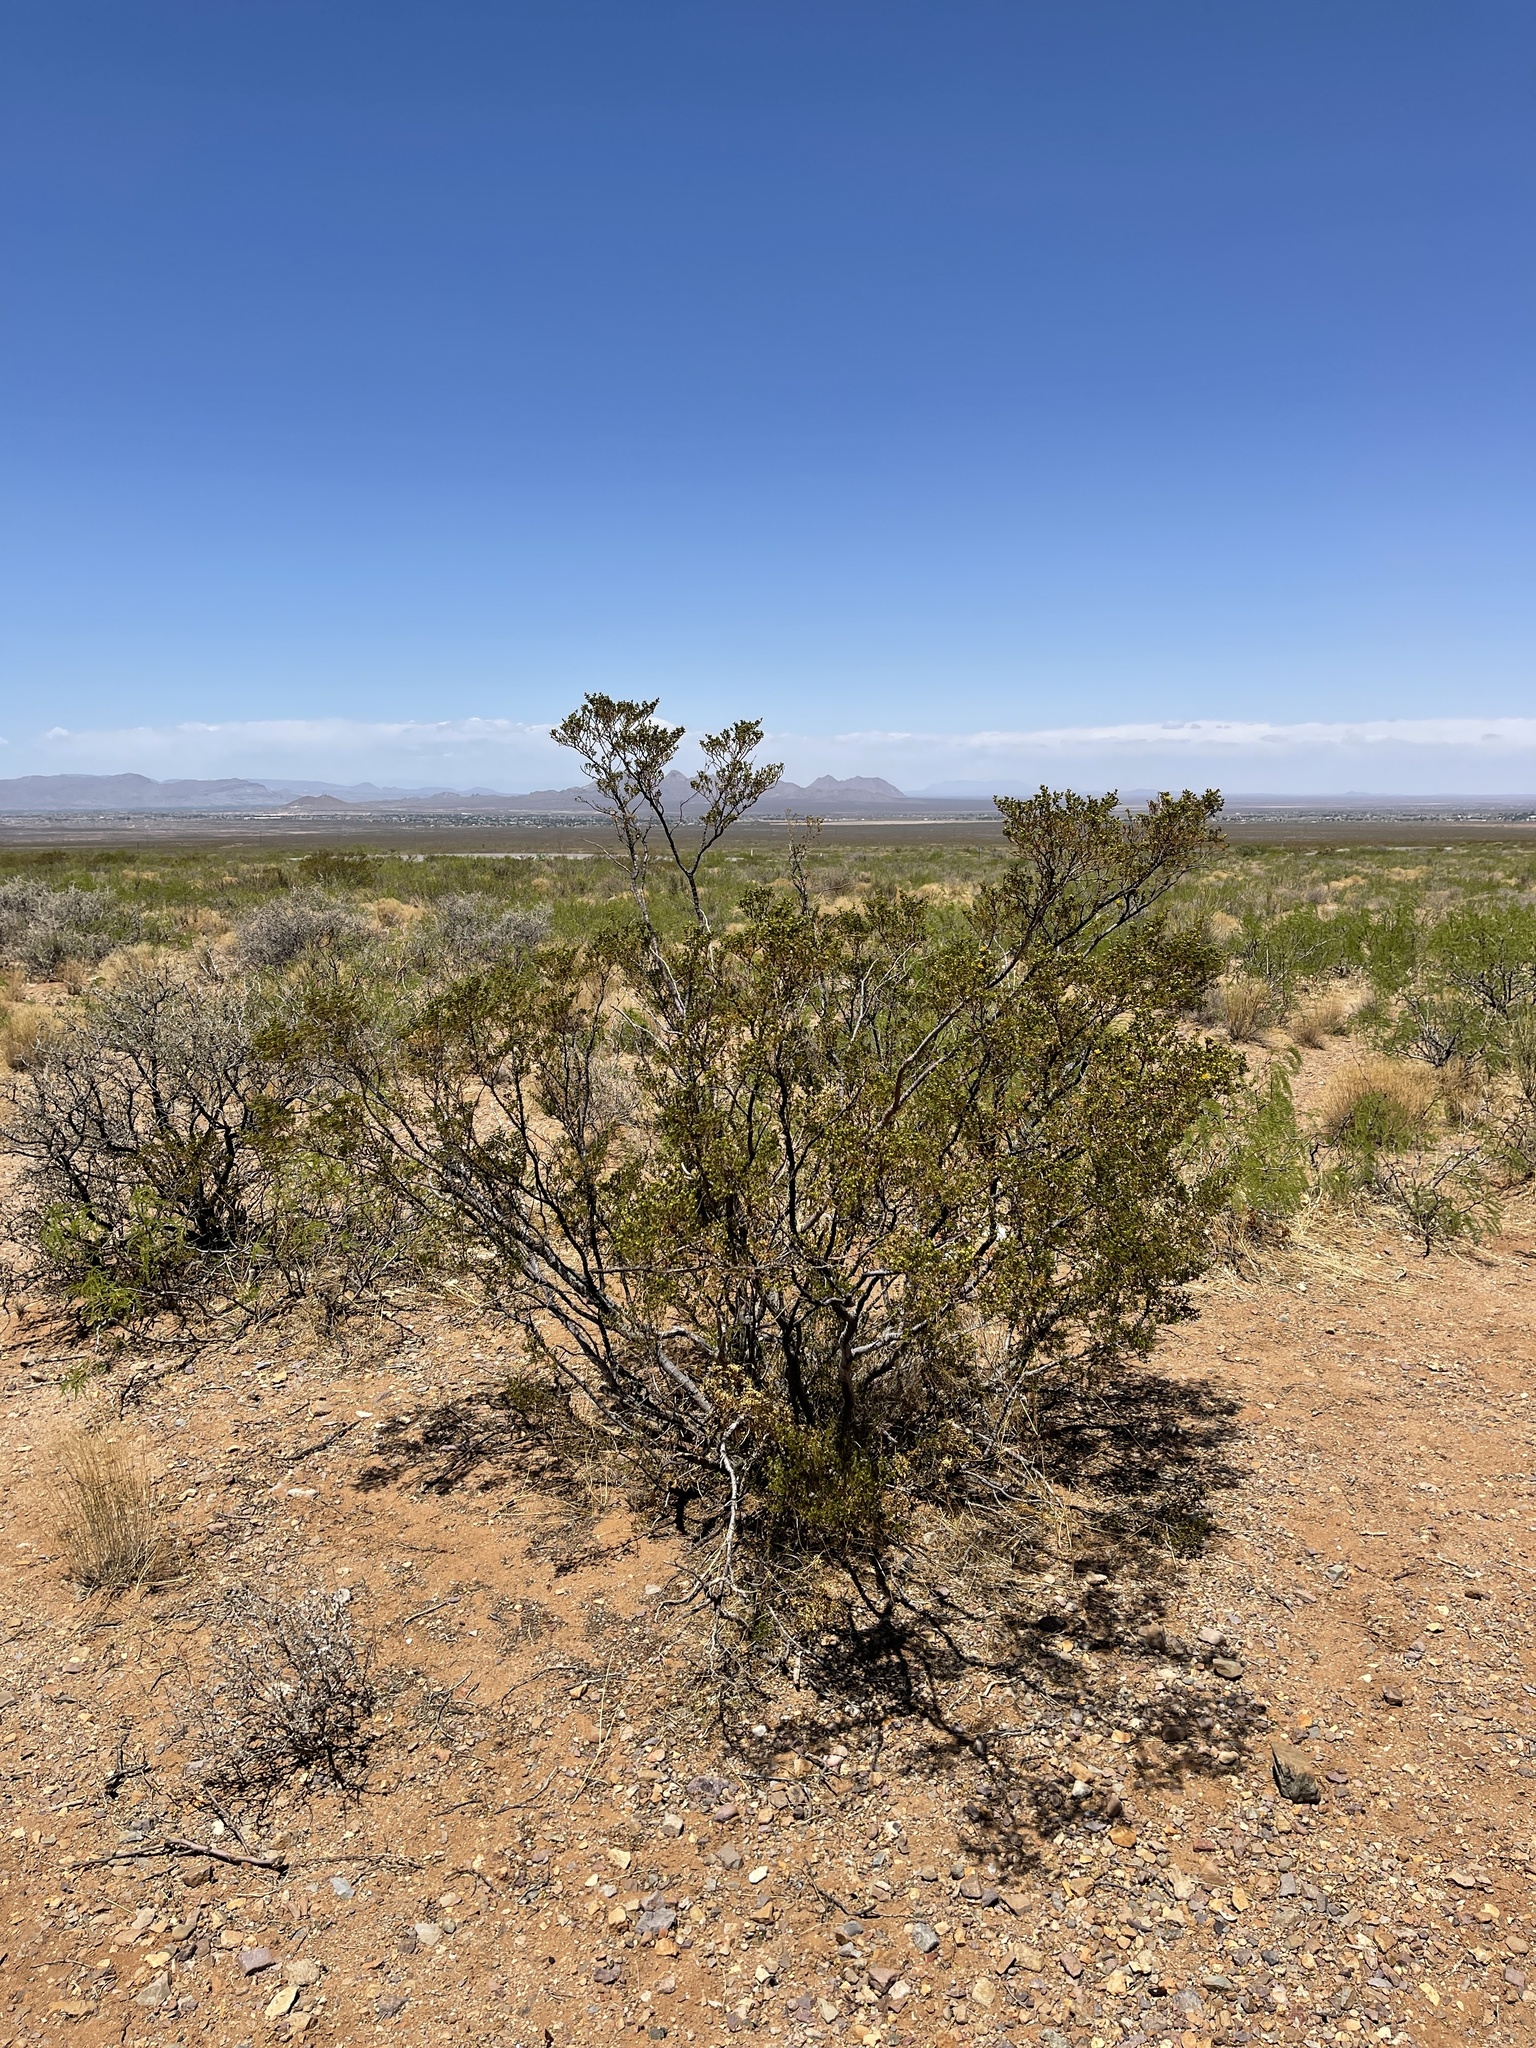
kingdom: Plantae
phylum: Tracheophyta
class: Magnoliopsida
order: Zygophyllales
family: Zygophyllaceae
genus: Larrea
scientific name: Larrea tridentata
